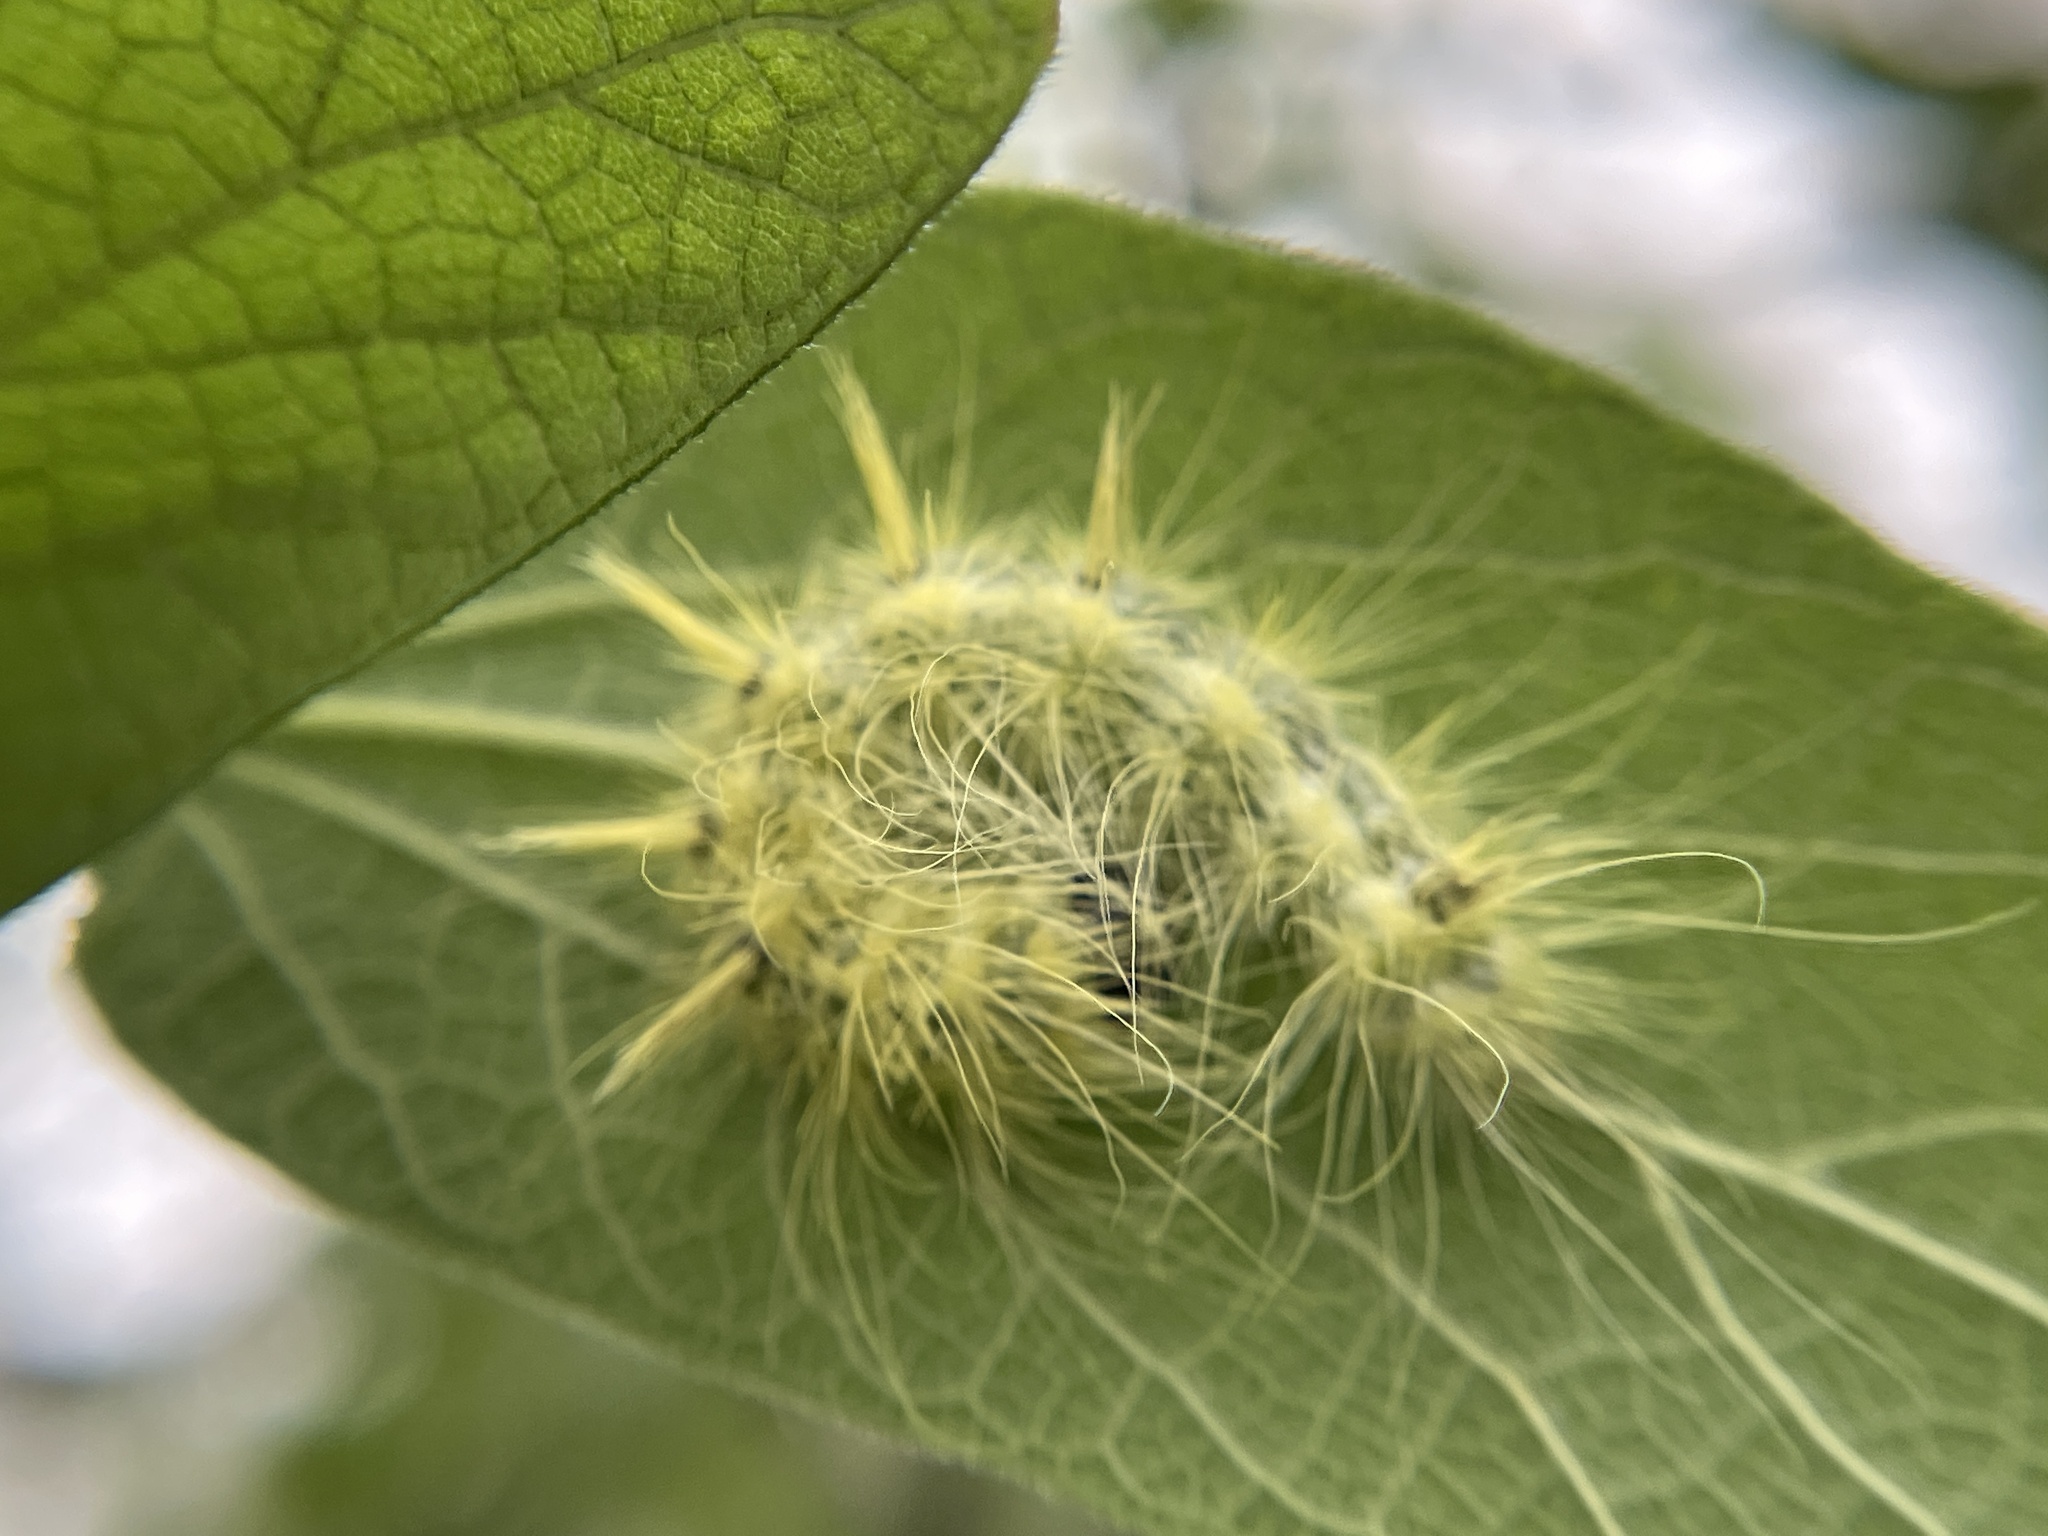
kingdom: Animalia
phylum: Arthropoda
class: Insecta
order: Lepidoptera
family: Noctuidae
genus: Acronicta
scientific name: Acronicta rubricoma
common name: Hackberry dagger
